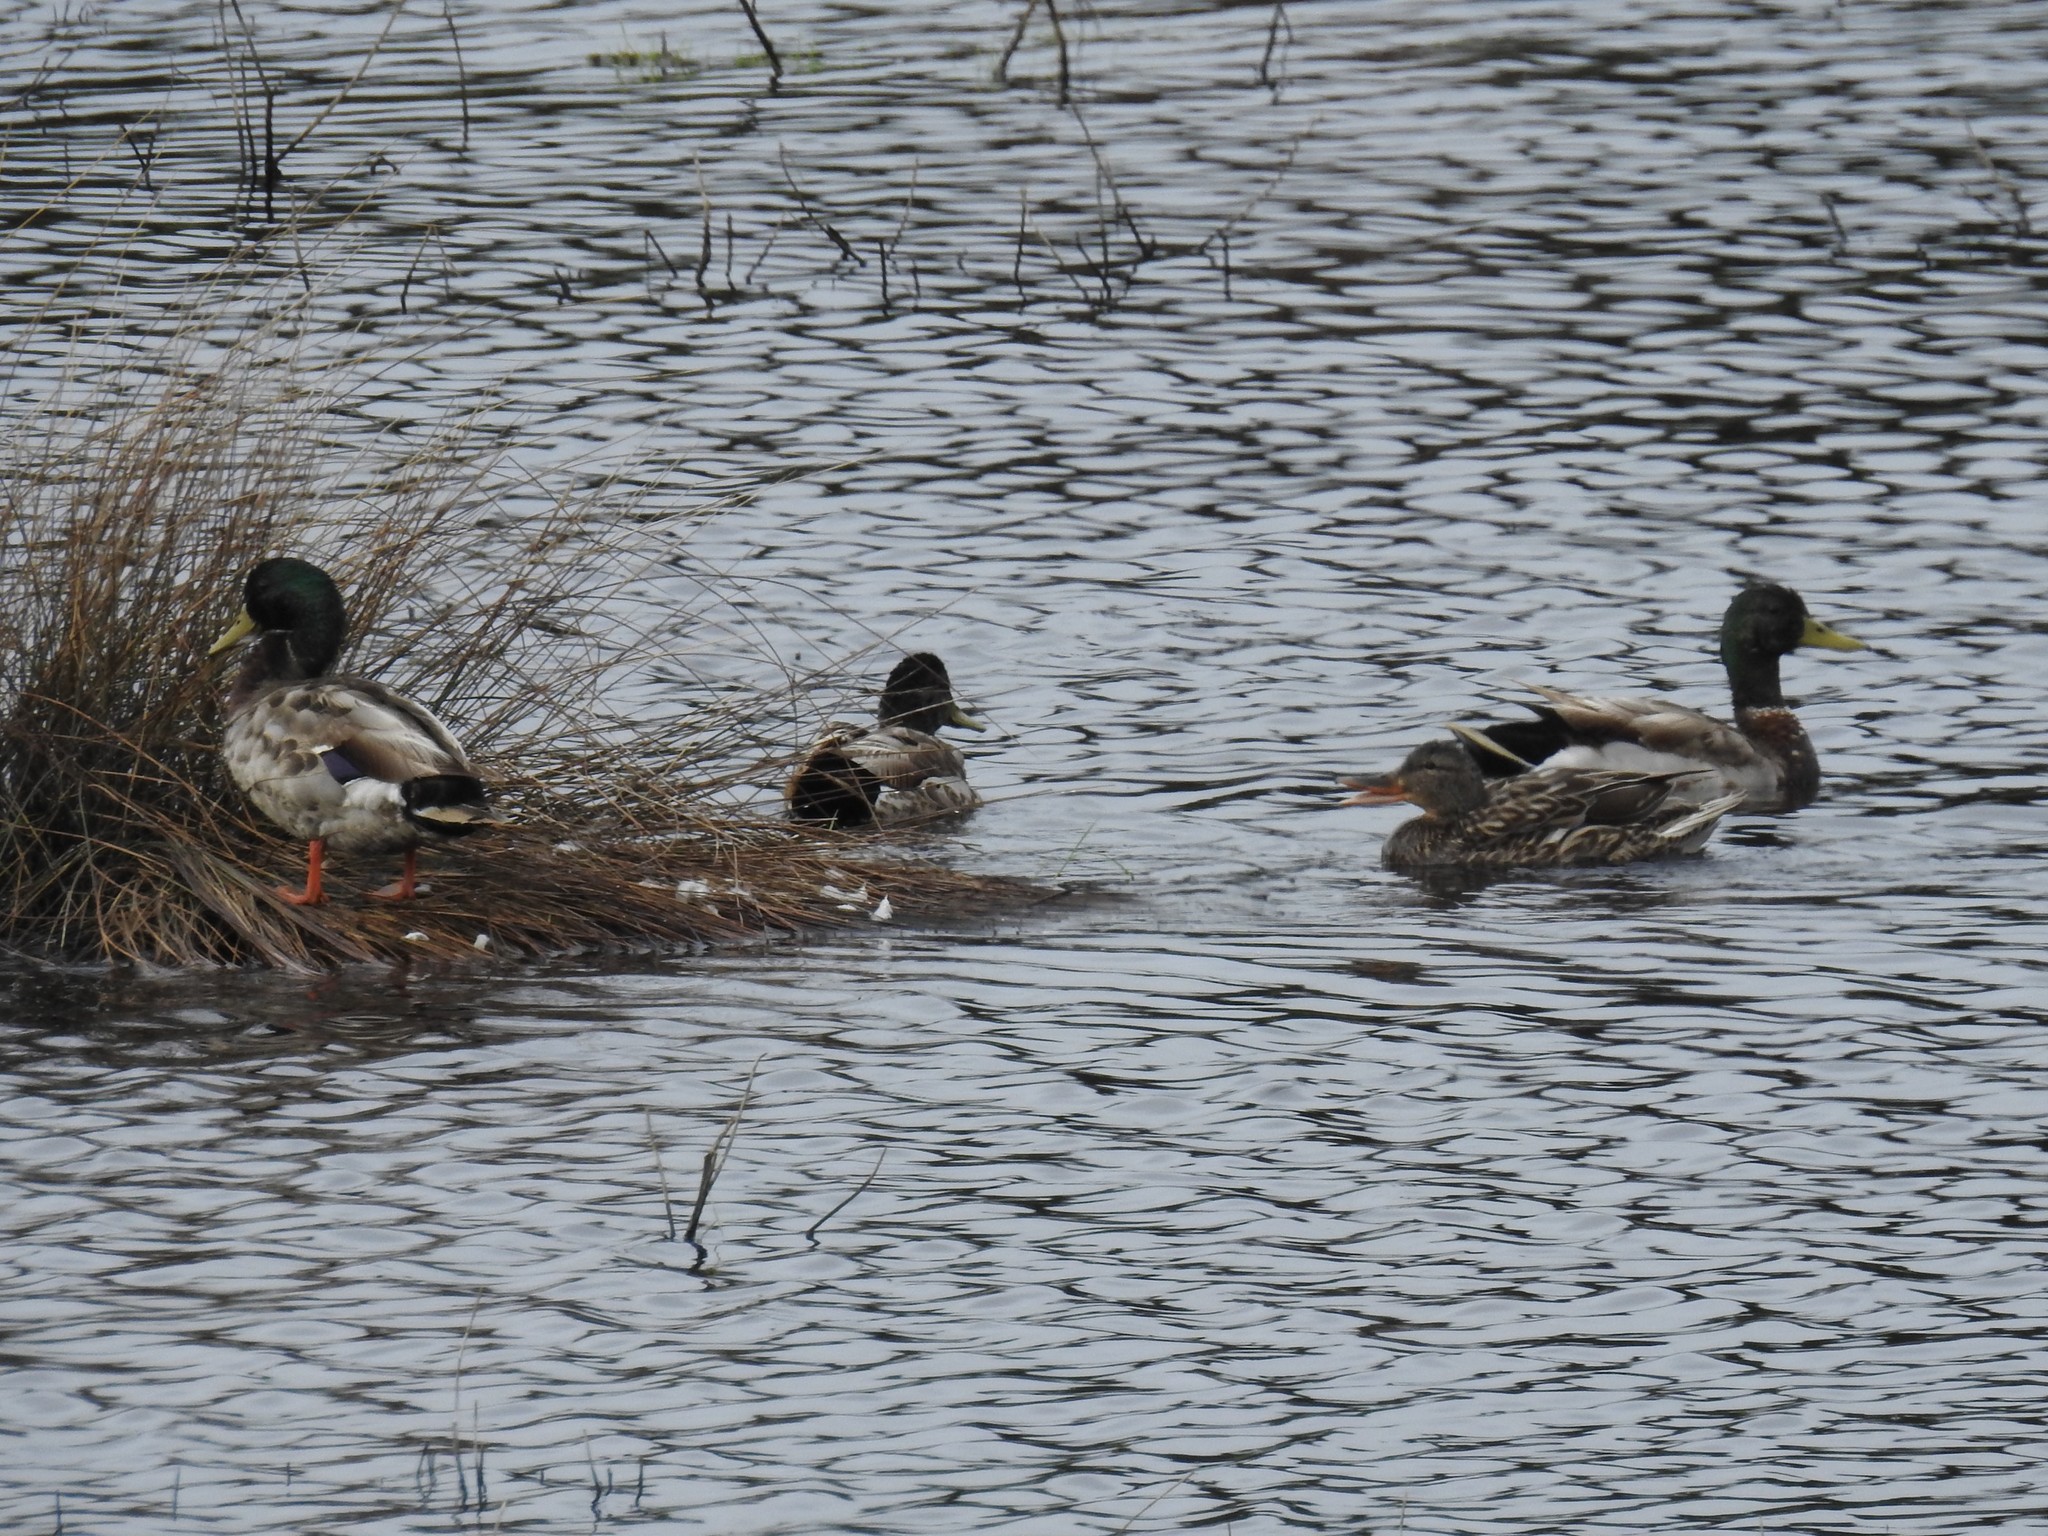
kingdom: Animalia
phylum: Chordata
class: Aves
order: Anseriformes
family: Anatidae
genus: Anas
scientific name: Anas platyrhynchos
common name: Mallard
